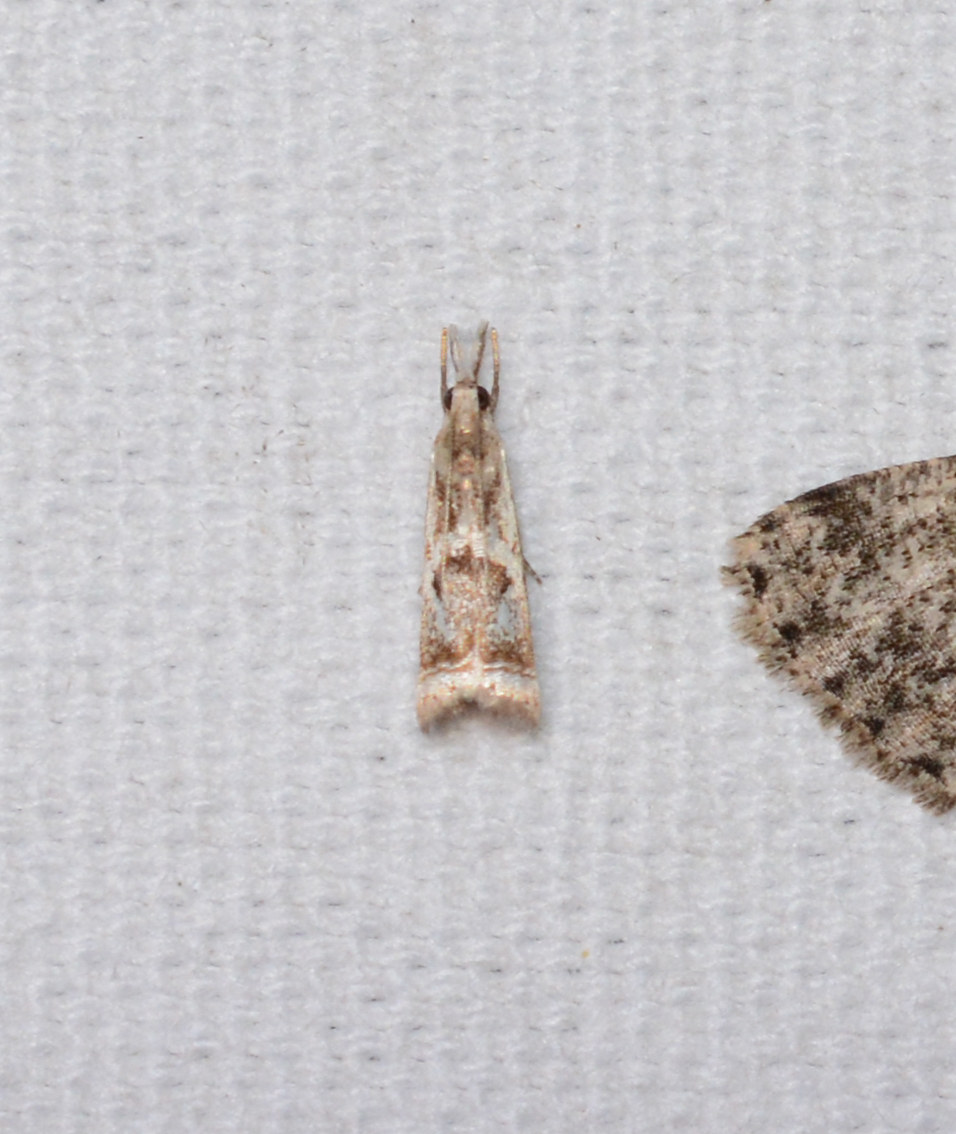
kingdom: Animalia
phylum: Arthropoda
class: Insecta
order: Lepidoptera
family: Crambidae
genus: Microcrambus
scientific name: Microcrambus elegans
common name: Elegant grass-veneer
